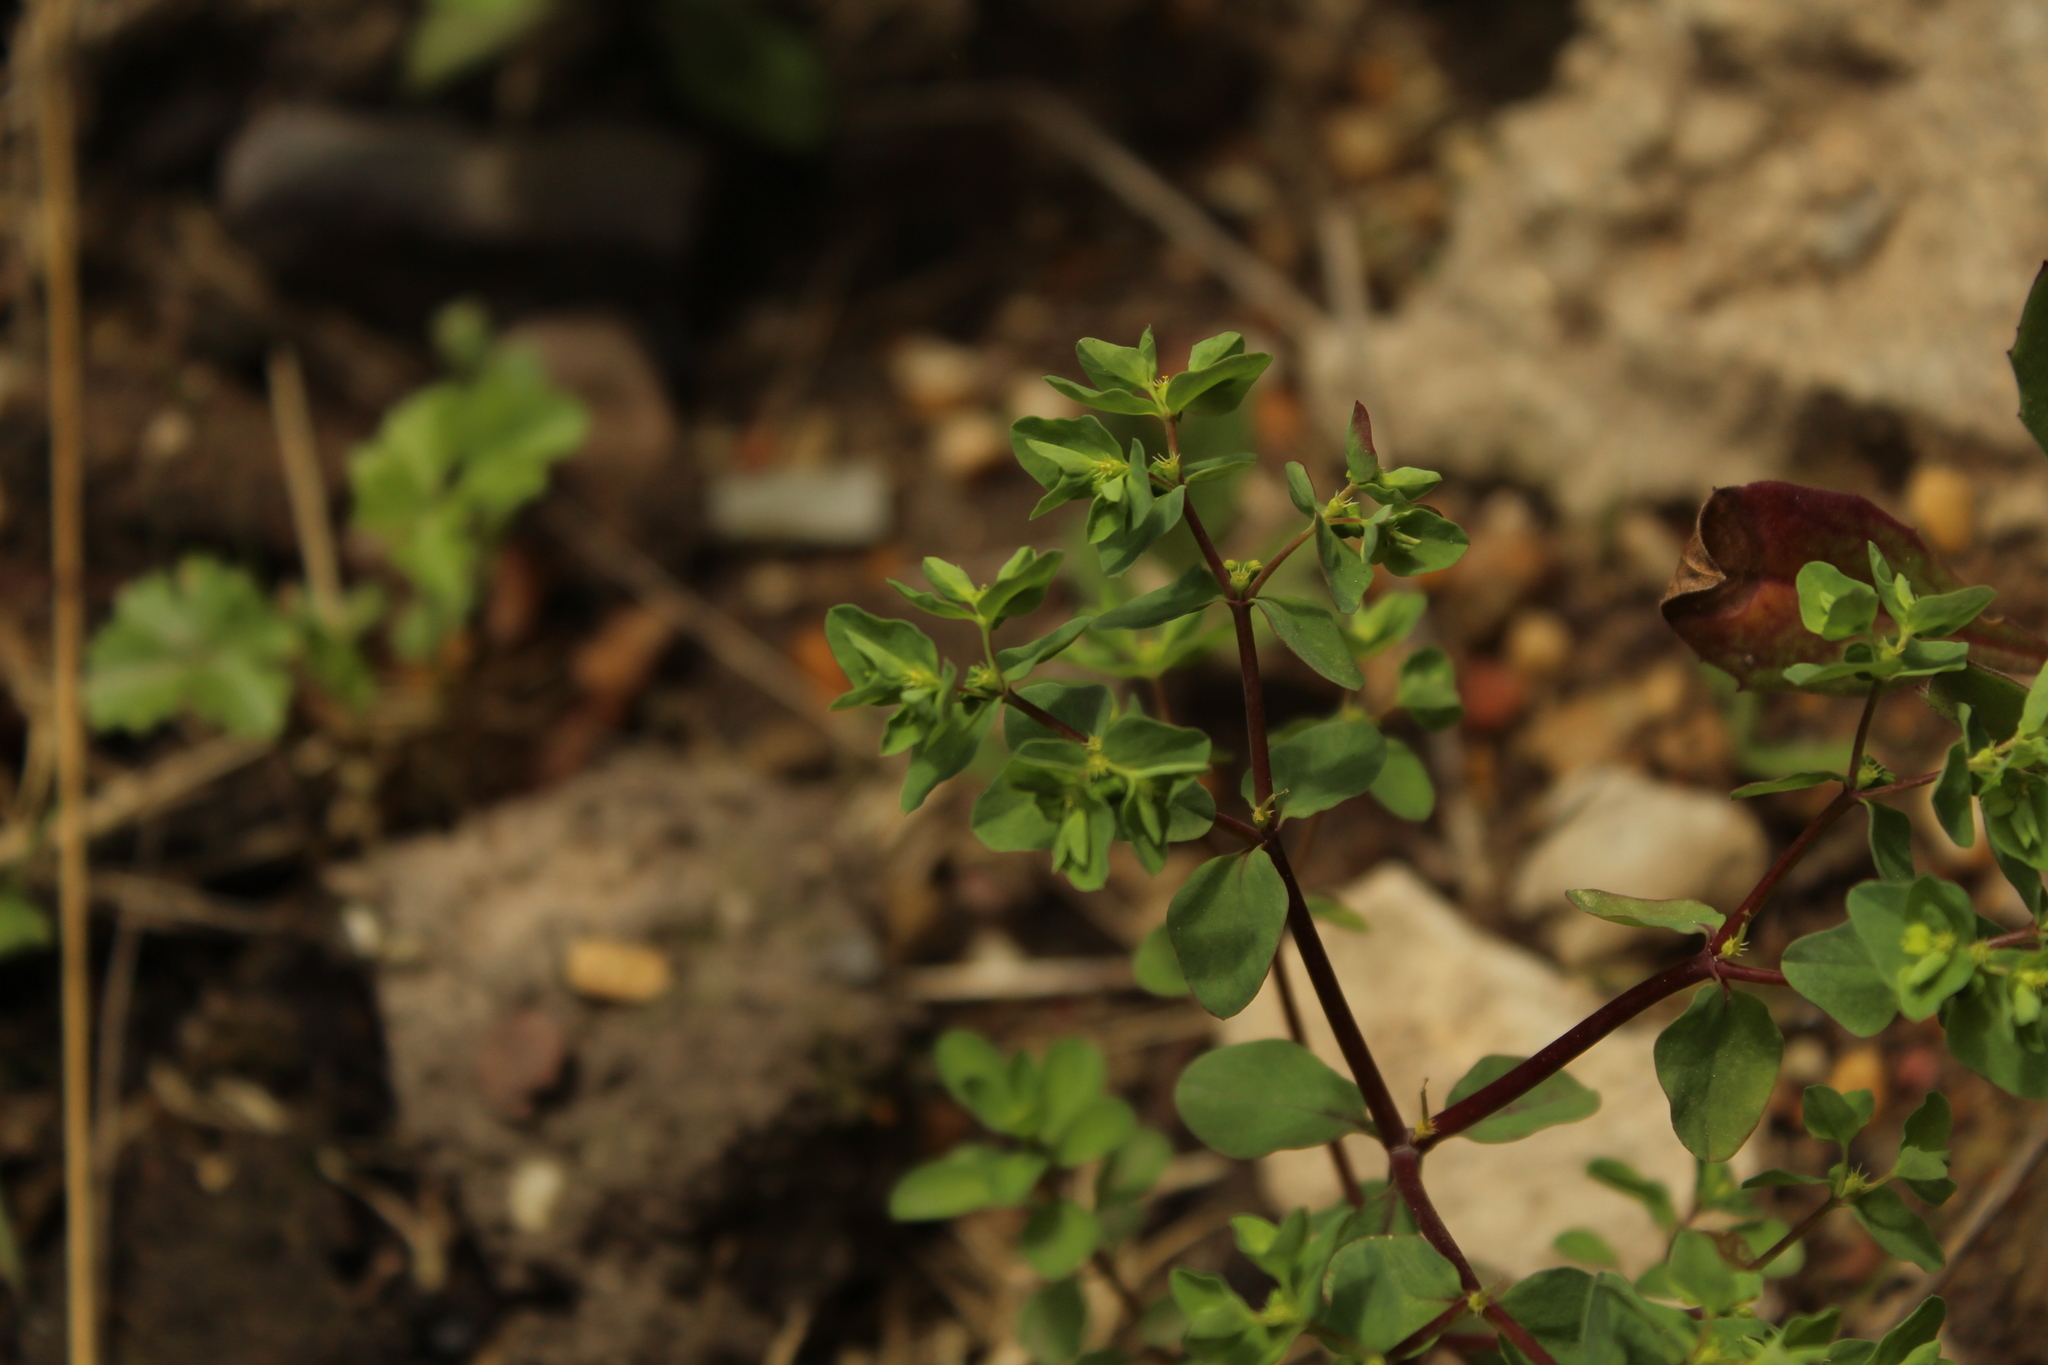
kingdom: Plantae
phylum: Tracheophyta
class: Magnoliopsida
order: Malpighiales
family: Euphorbiaceae
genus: Euphorbia
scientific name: Euphorbia peplus
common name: Petty spurge
